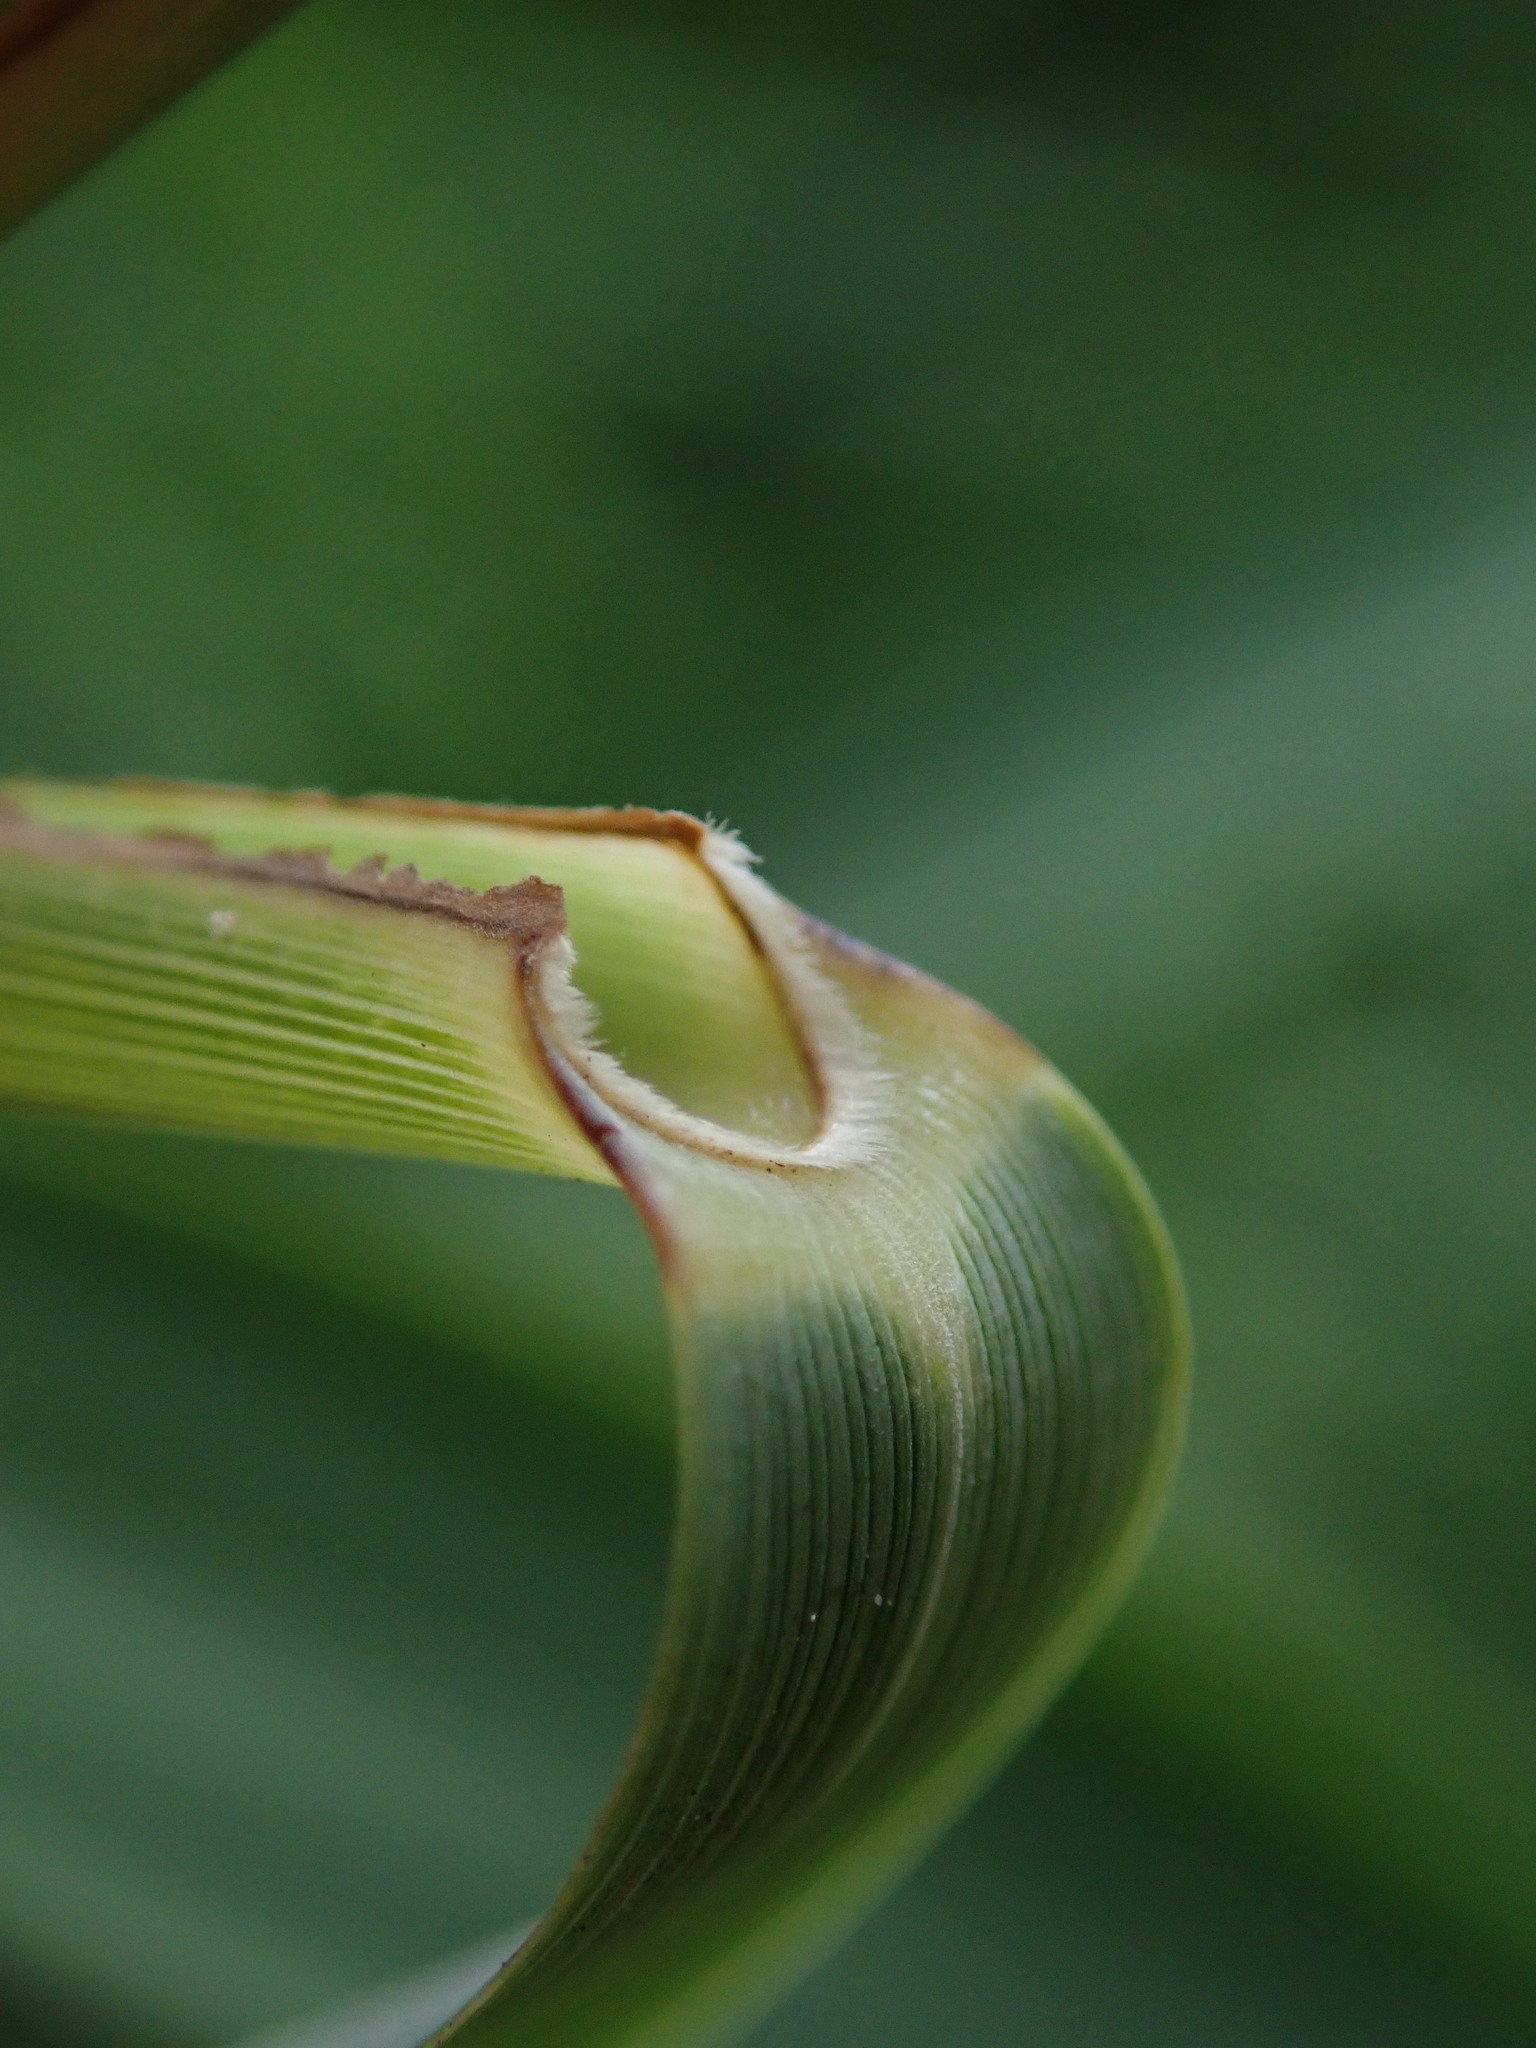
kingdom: Plantae
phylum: Tracheophyta
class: Liliopsida
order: Poales
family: Poaceae
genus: Phragmites
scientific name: Phragmites australis
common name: Common reed
